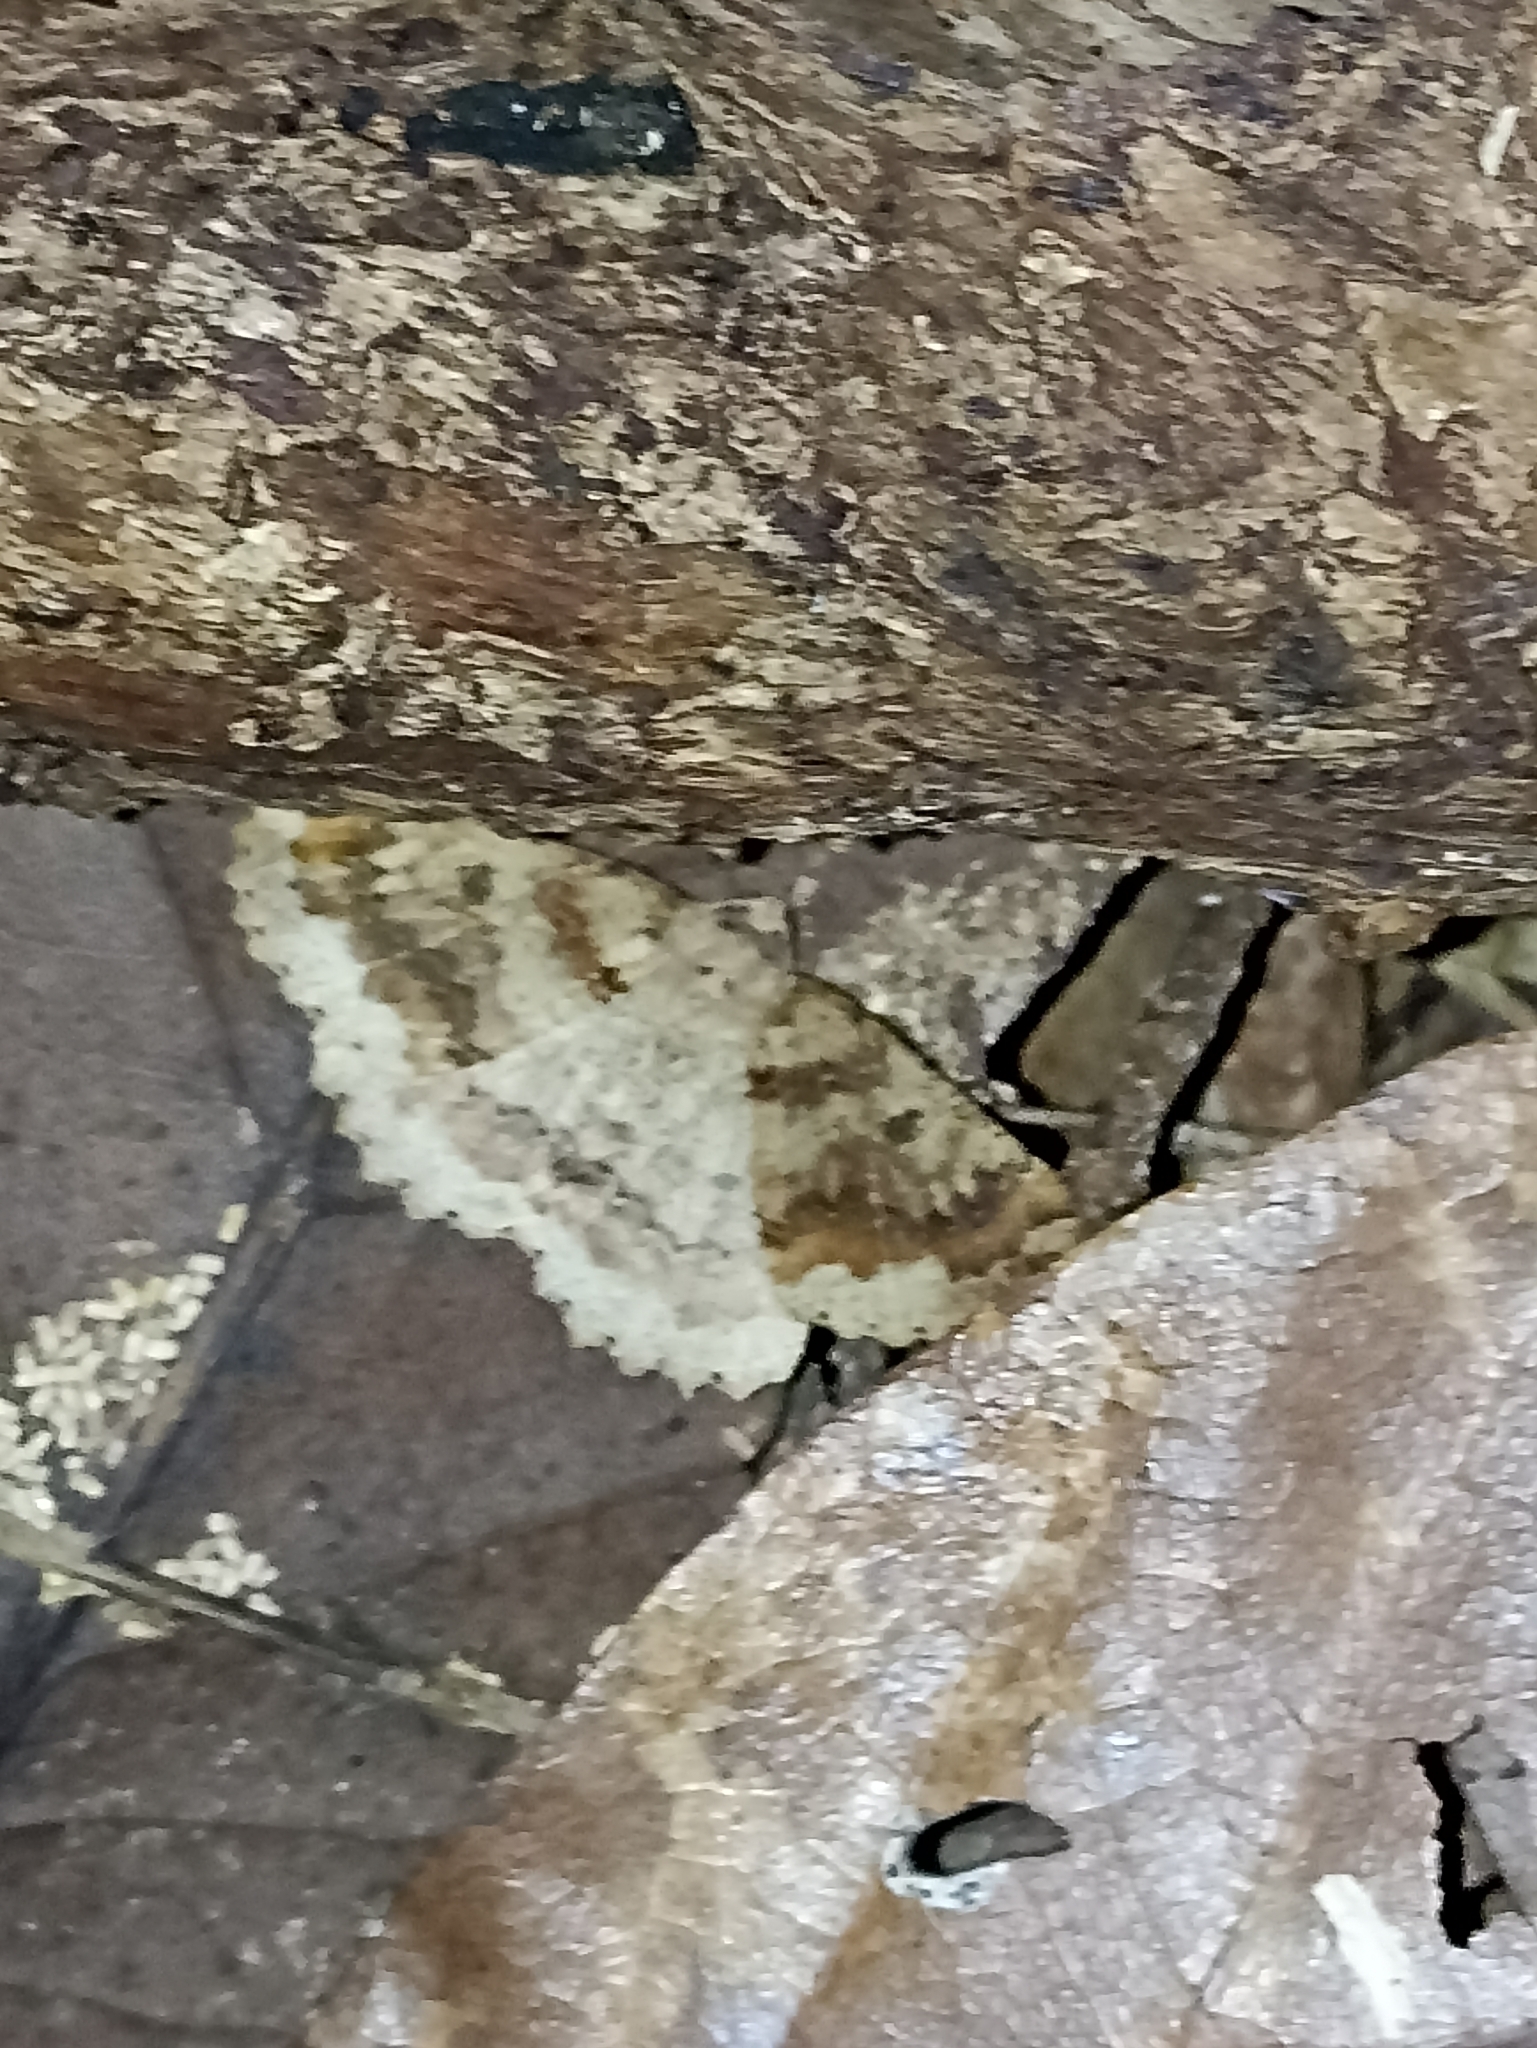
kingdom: Animalia
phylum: Arthropoda
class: Insecta
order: Lepidoptera
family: Geometridae
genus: Cleora
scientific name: Cleora scriptaria
